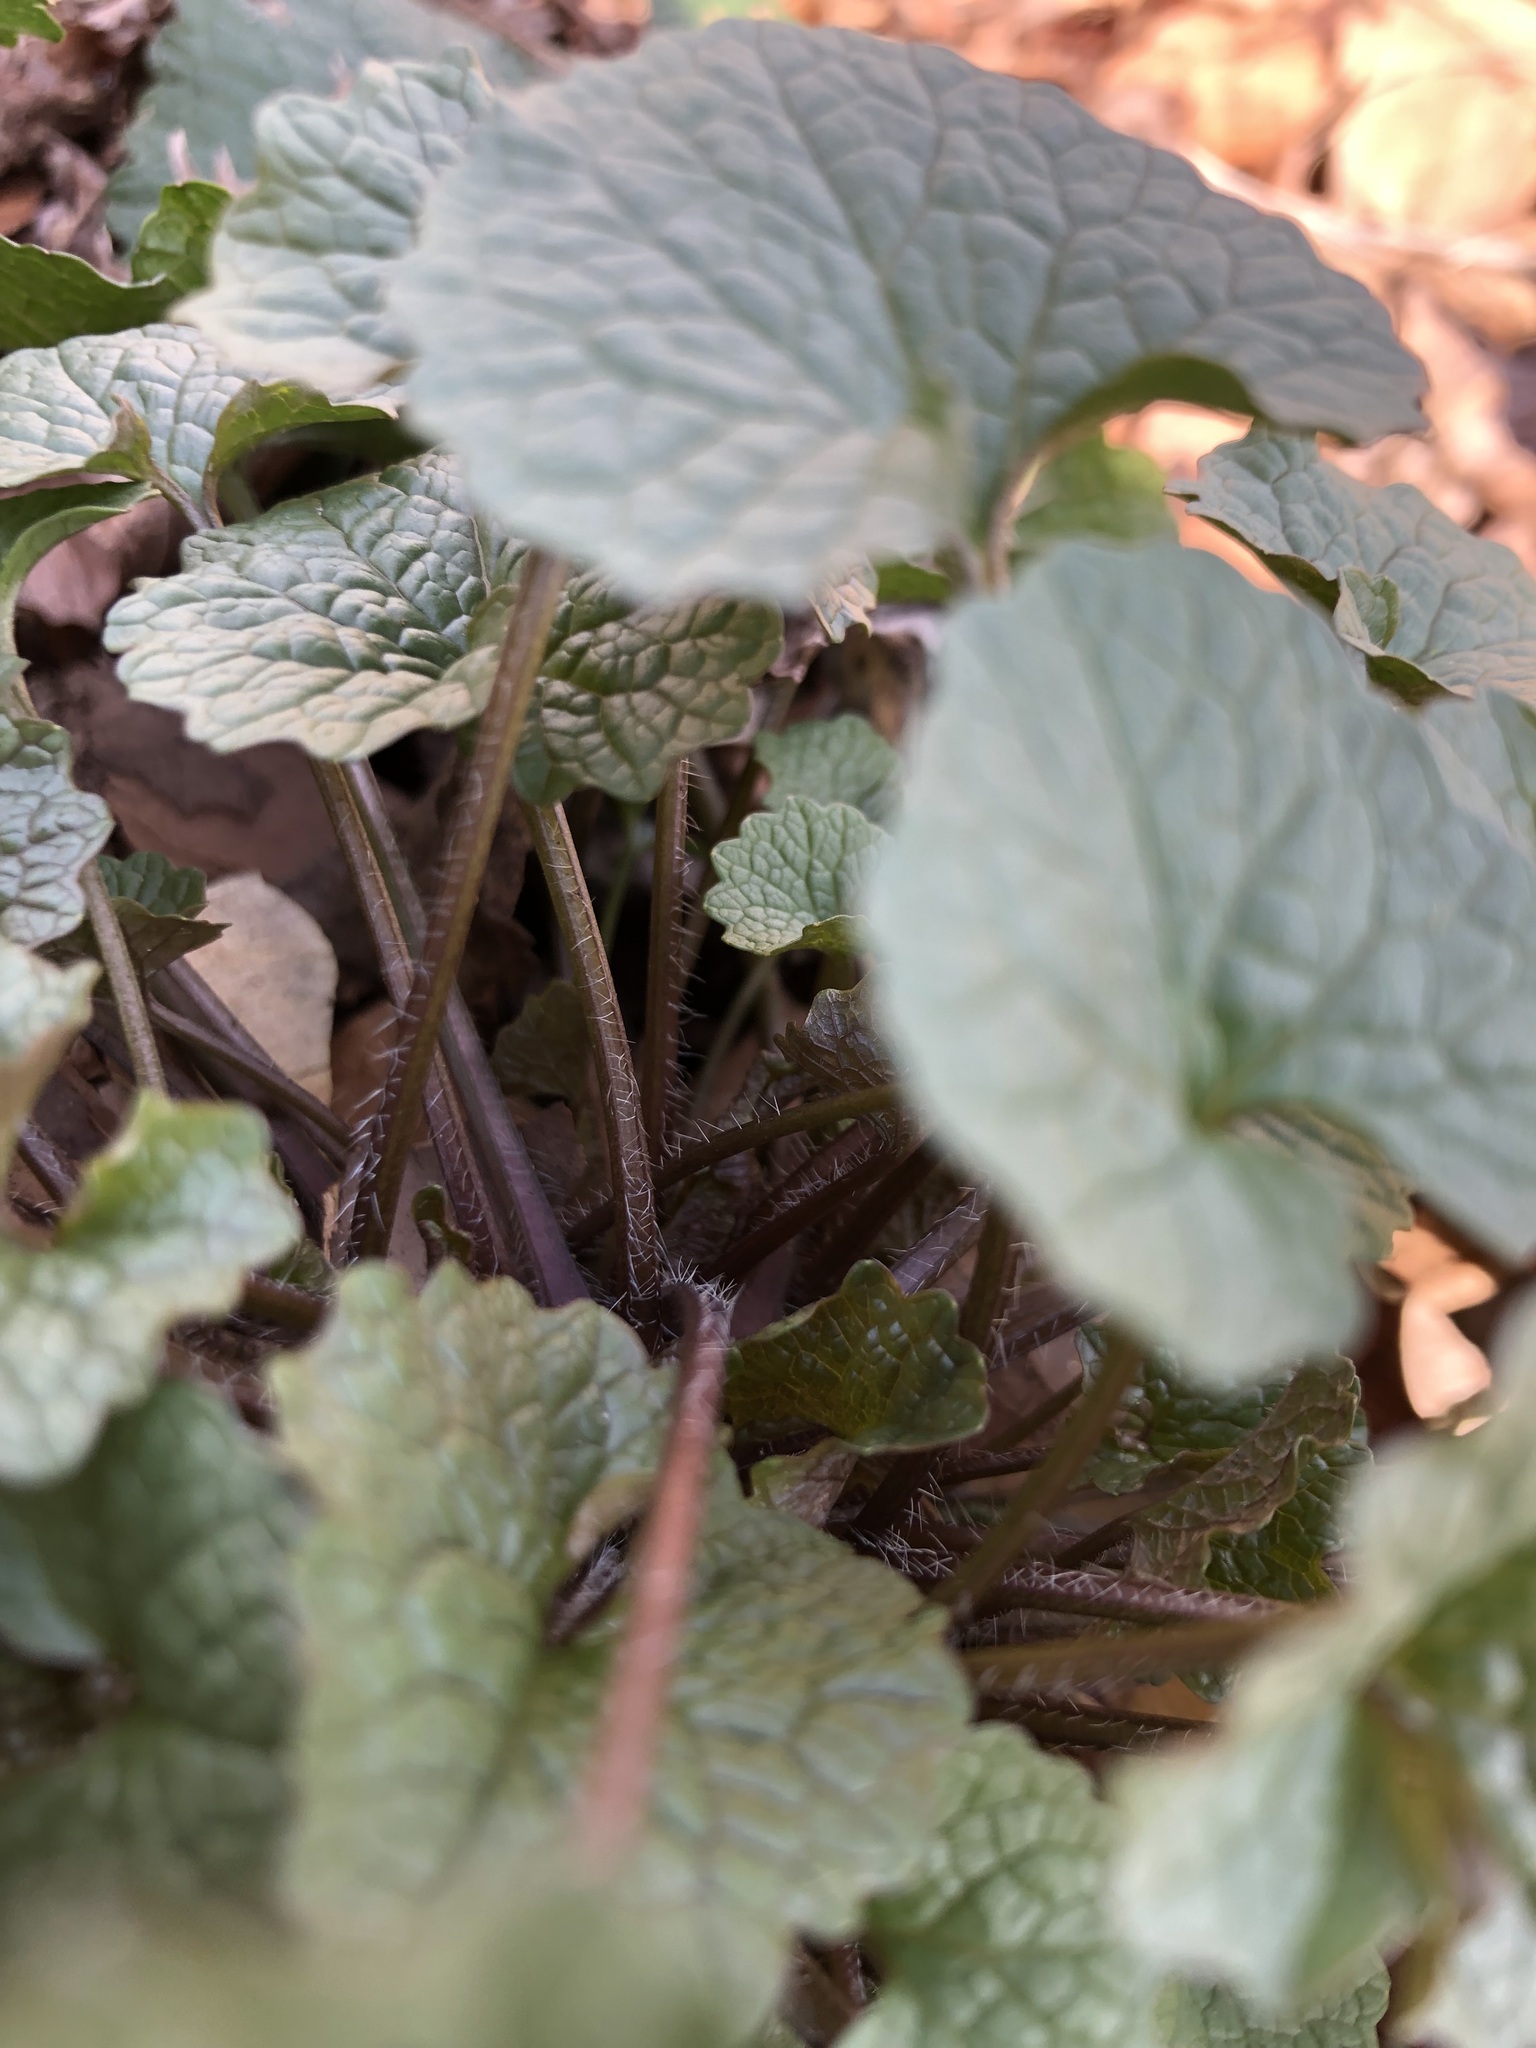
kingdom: Plantae
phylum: Tracheophyta
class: Magnoliopsida
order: Brassicales
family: Brassicaceae
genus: Alliaria
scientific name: Alliaria petiolata
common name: Garlic mustard
